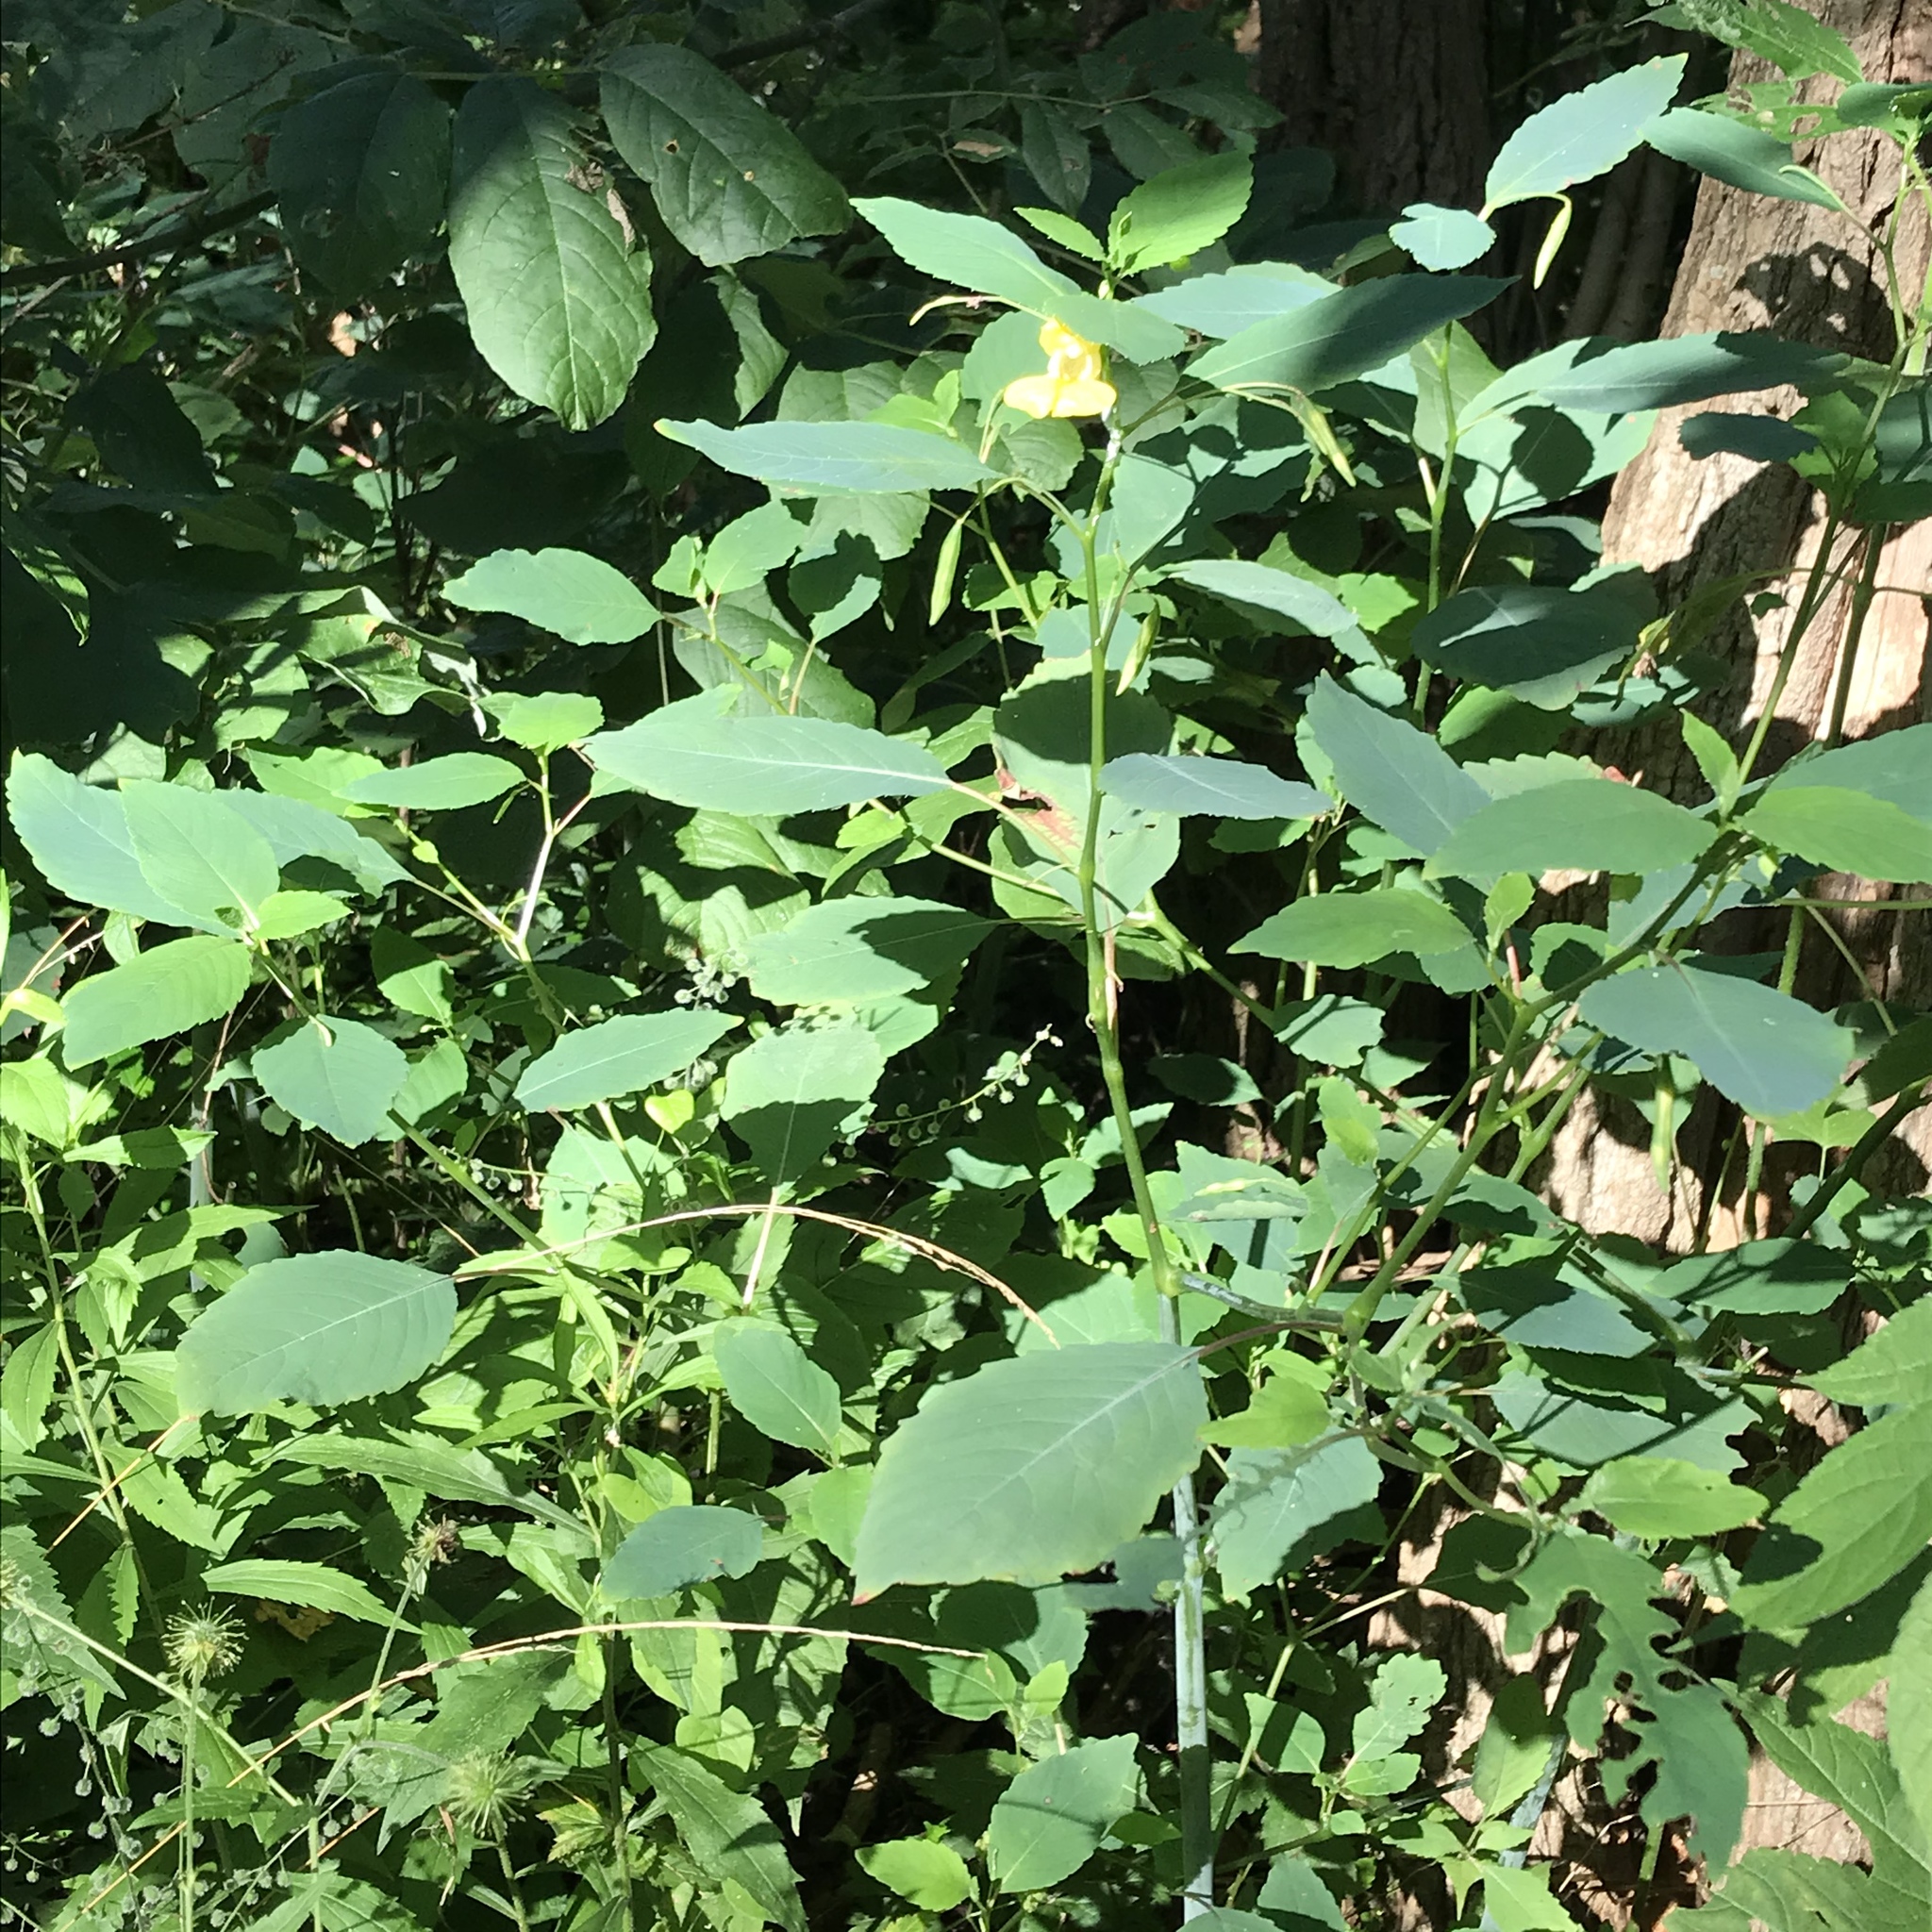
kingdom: Plantae
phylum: Tracheophyta
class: Magnoliopsida
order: Ericales
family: Balsaminaceae
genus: Impatiens
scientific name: Impatiens pallida
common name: Pale snapweed
